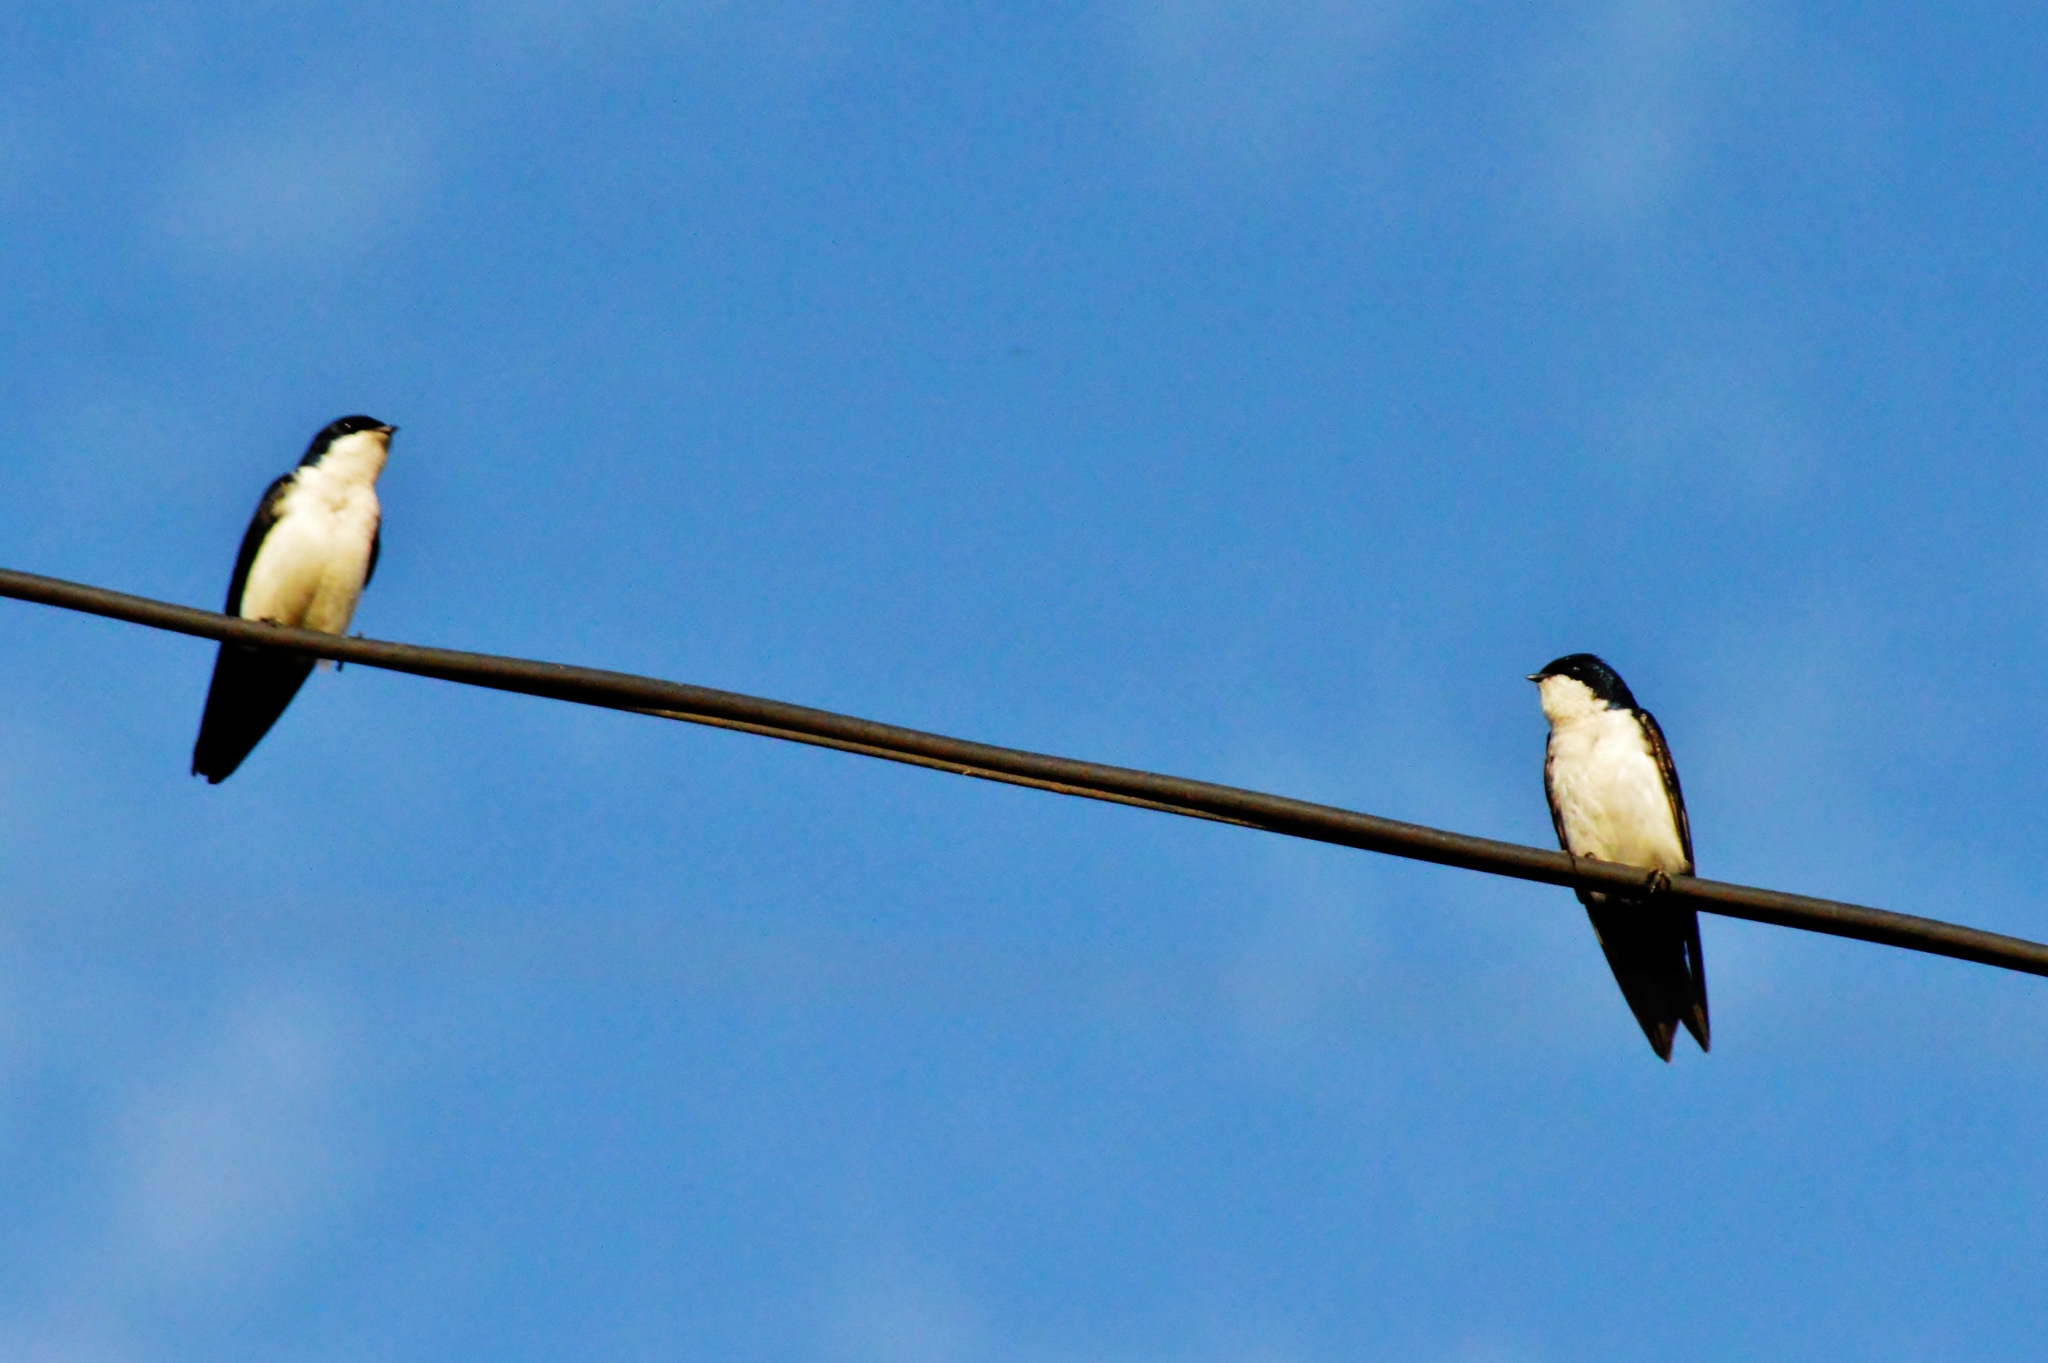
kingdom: Animalia
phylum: Chordata
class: Aves
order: Passeriformes
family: Hirundinidae
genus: Notiochelidon
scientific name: Notiochelidon cyanoleuca
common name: Blue-and-white swallow
